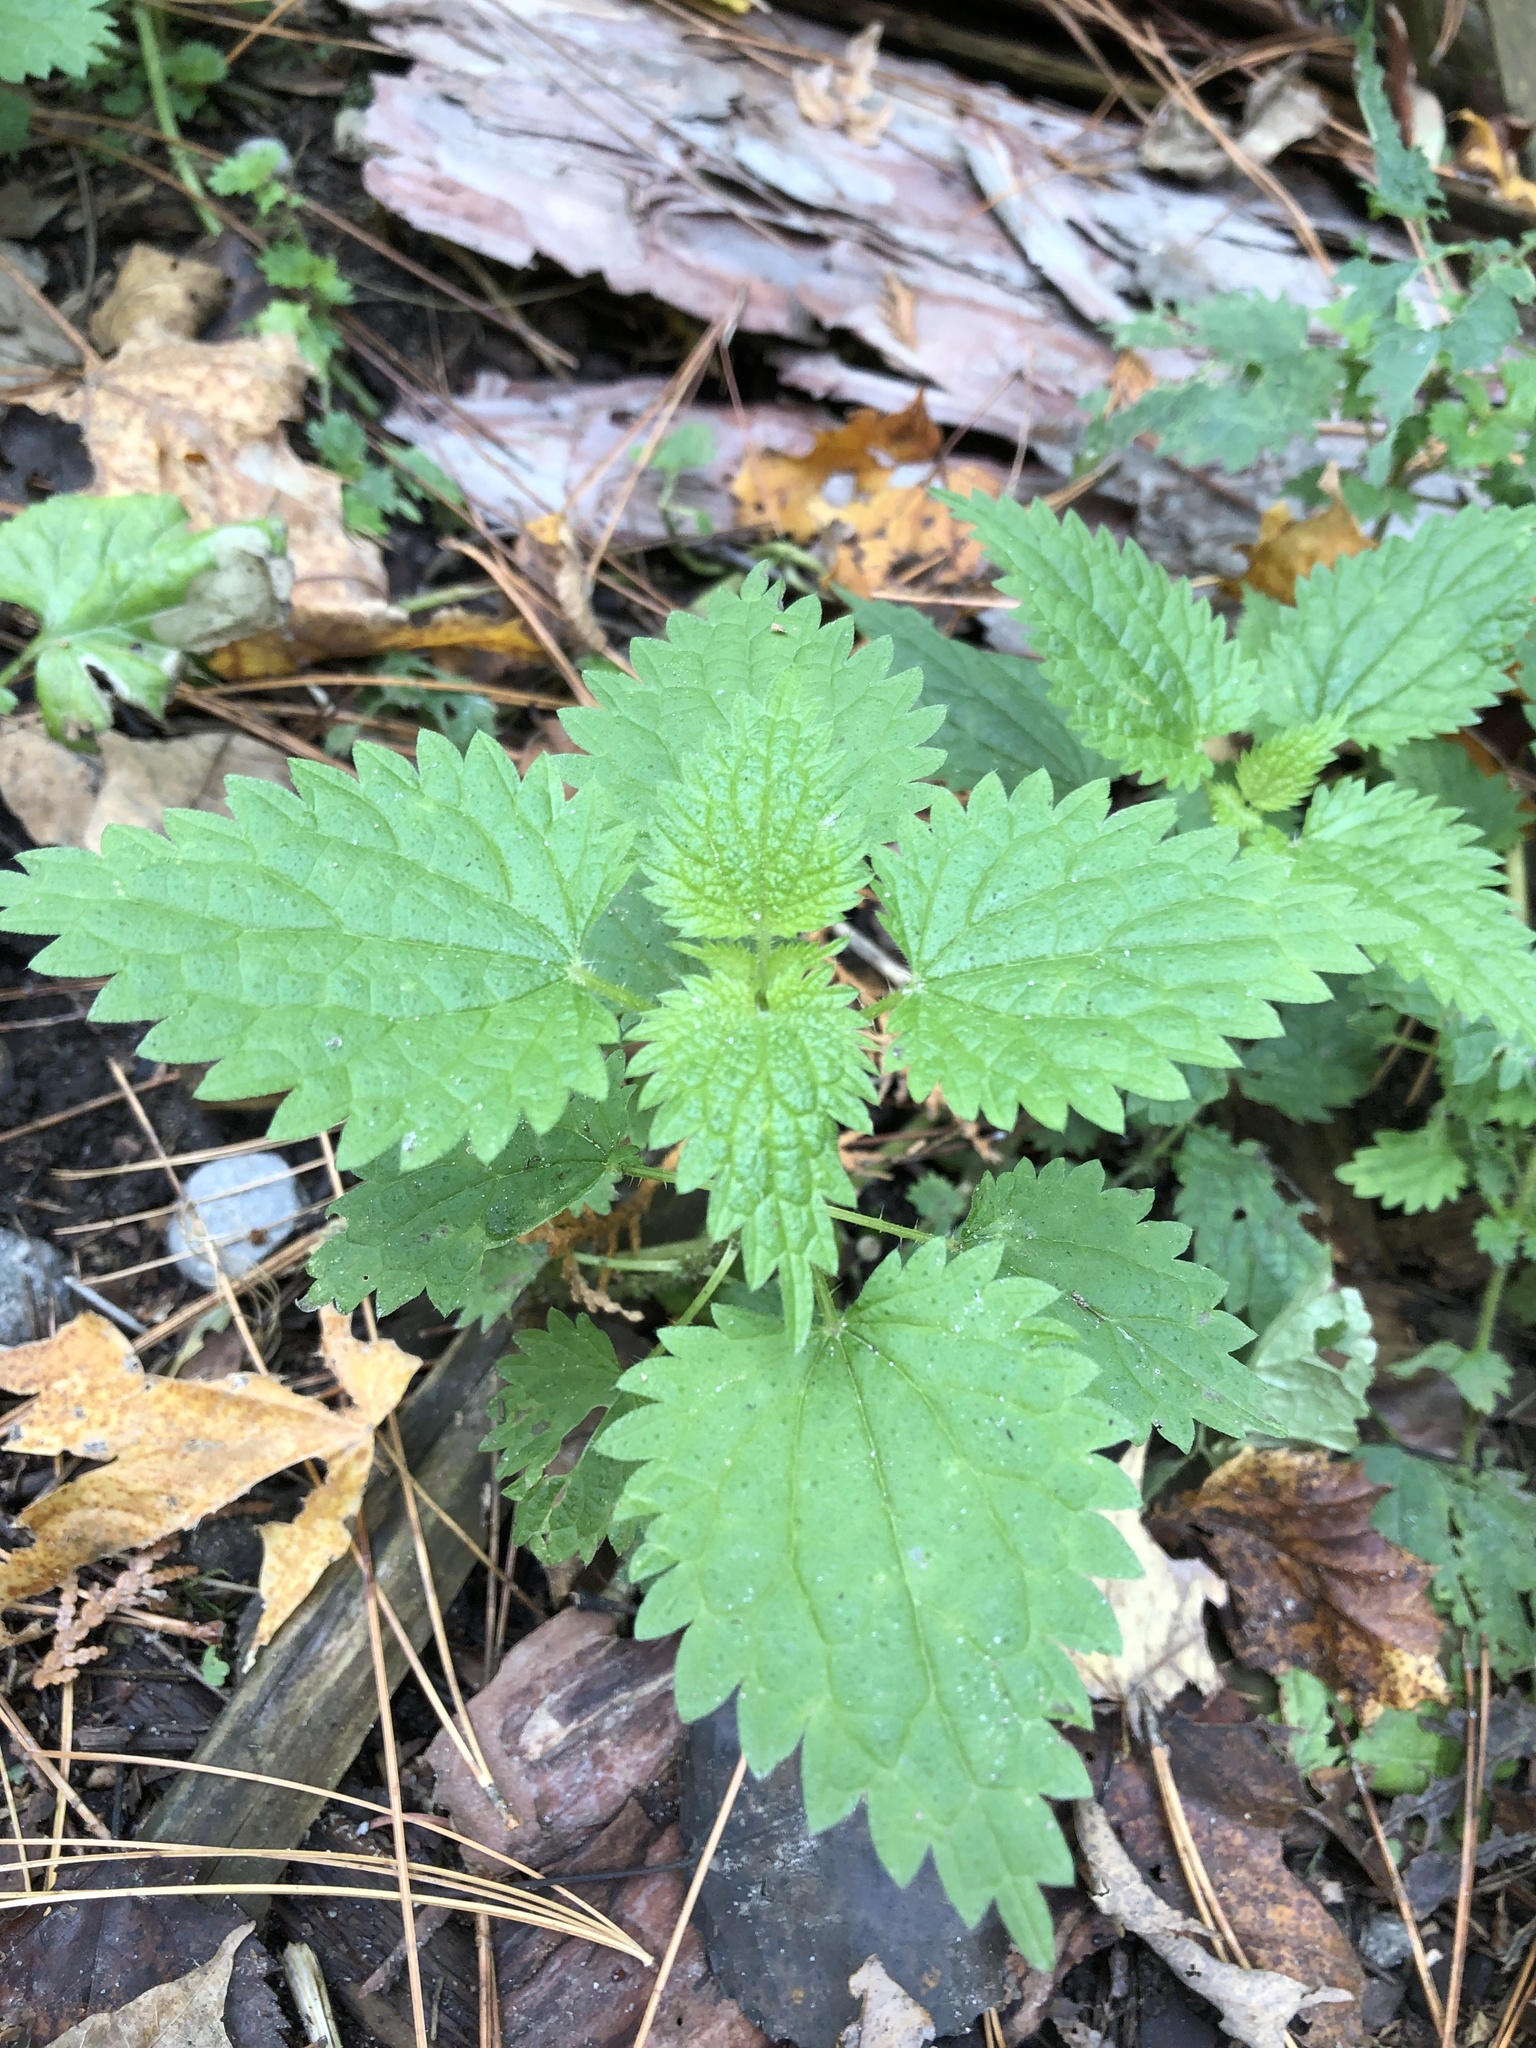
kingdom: Plantae
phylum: Tracheophyta
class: Magnoliopsida
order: Rosales
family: Urticaceae
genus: Urtica
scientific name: Urtica dioica
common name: Common nettle
